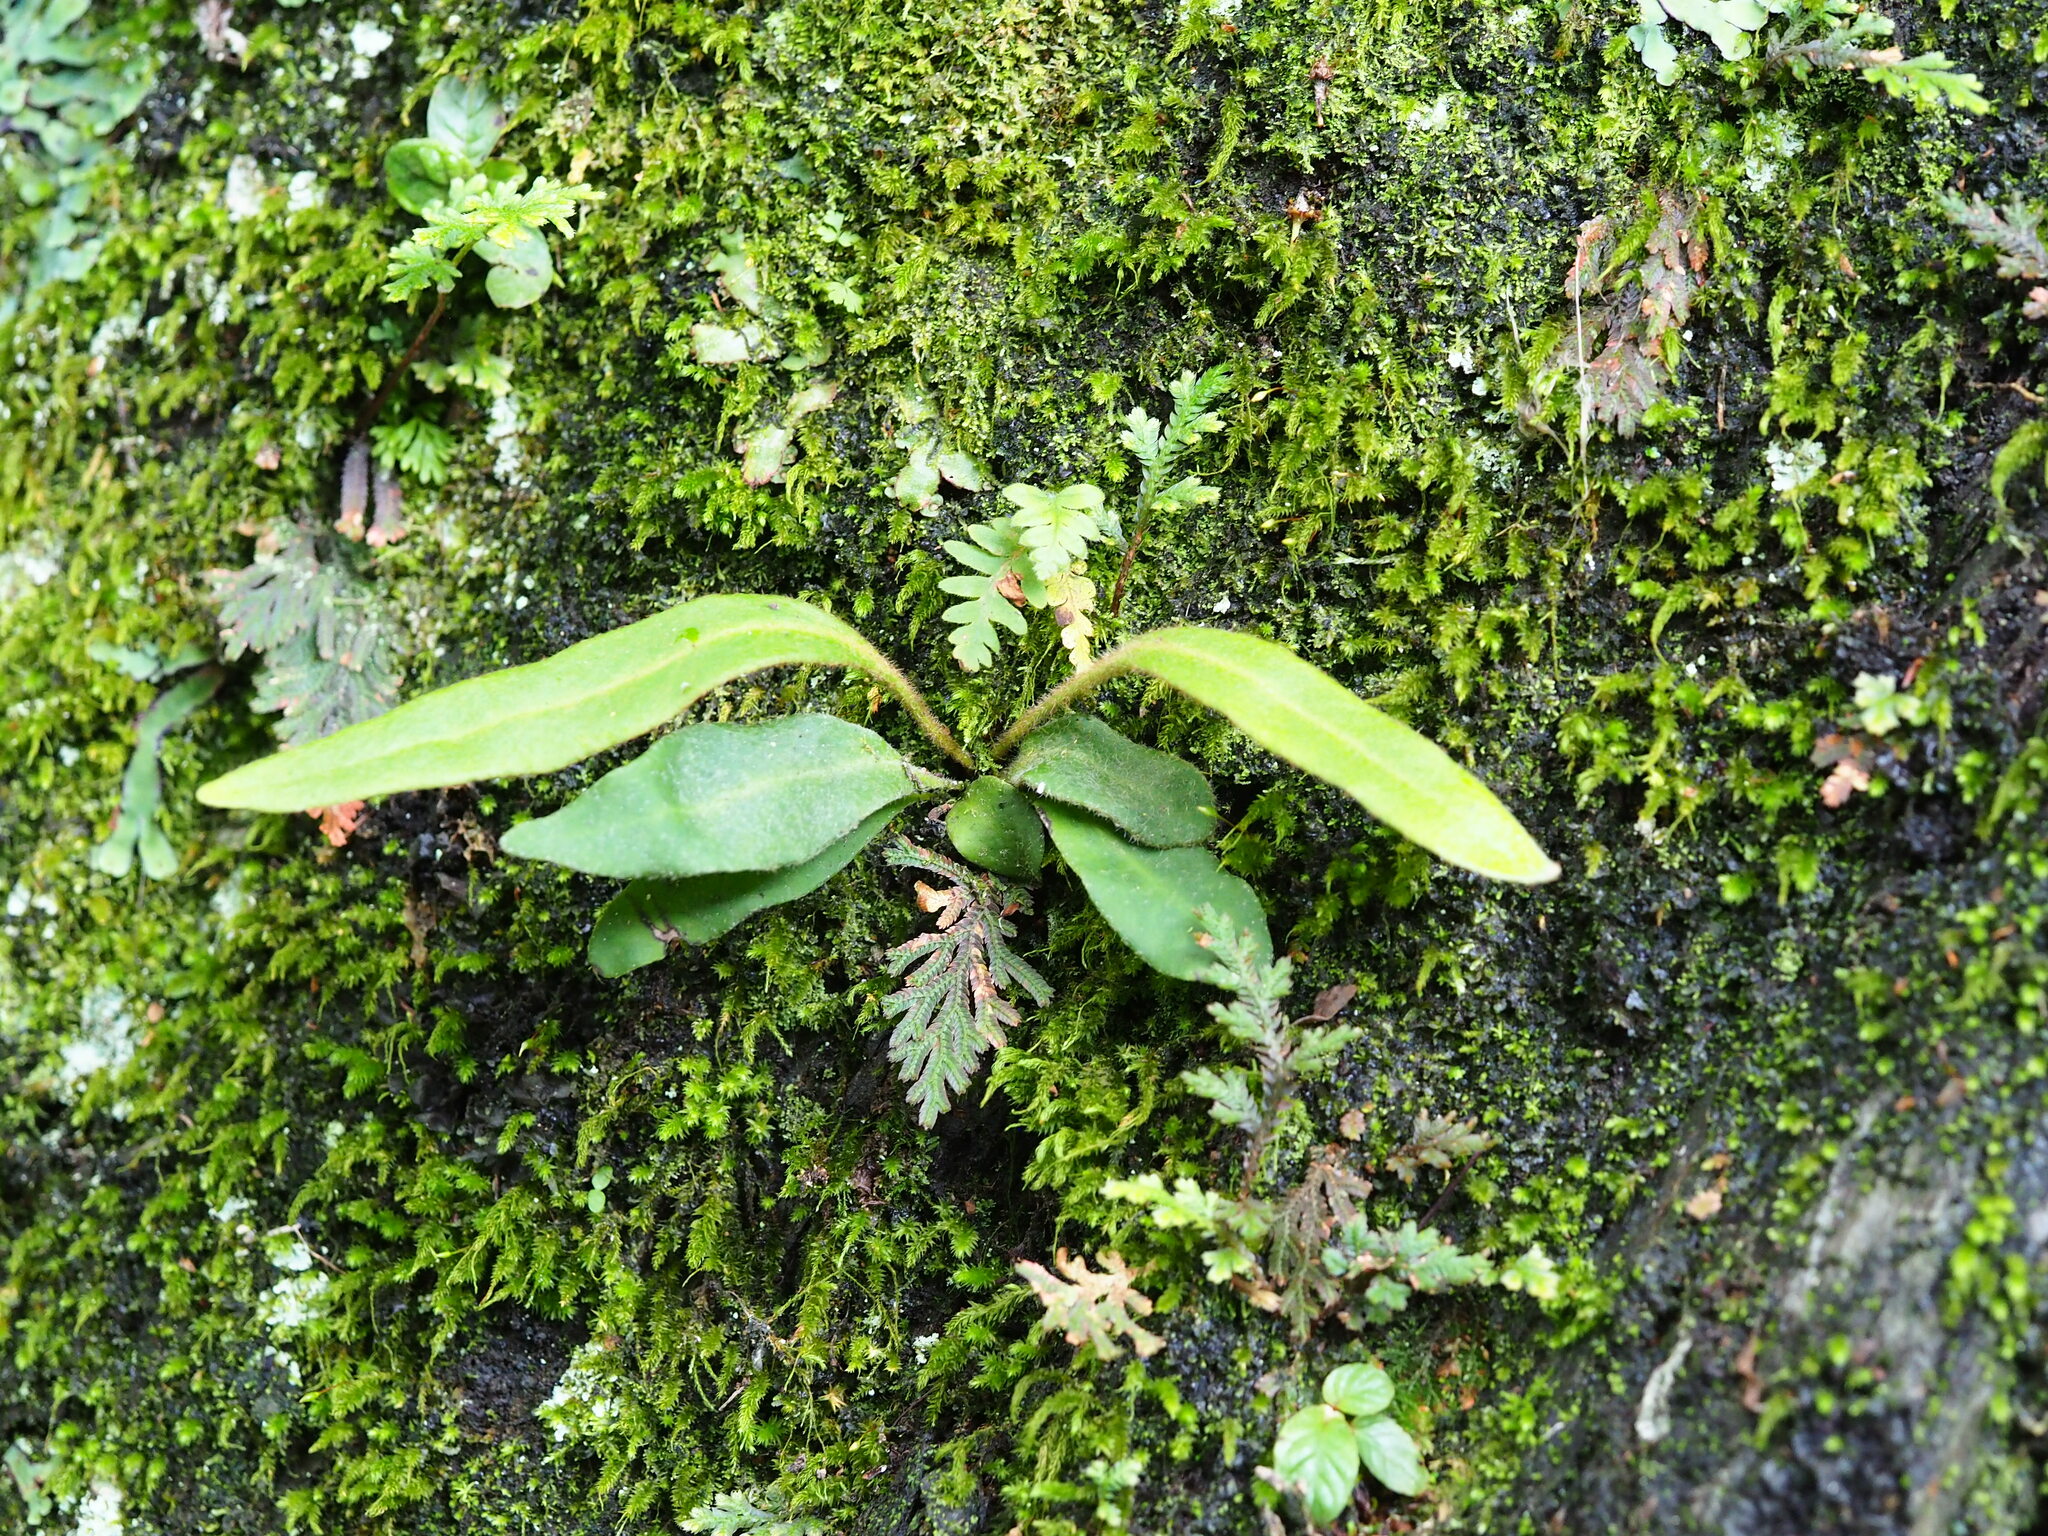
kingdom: Plantae
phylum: Tracheophyta
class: Polypodiopsida
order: Polypodiales
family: Polypodiaceae
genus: Pyrrosia
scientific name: Pyrrosia porosa
